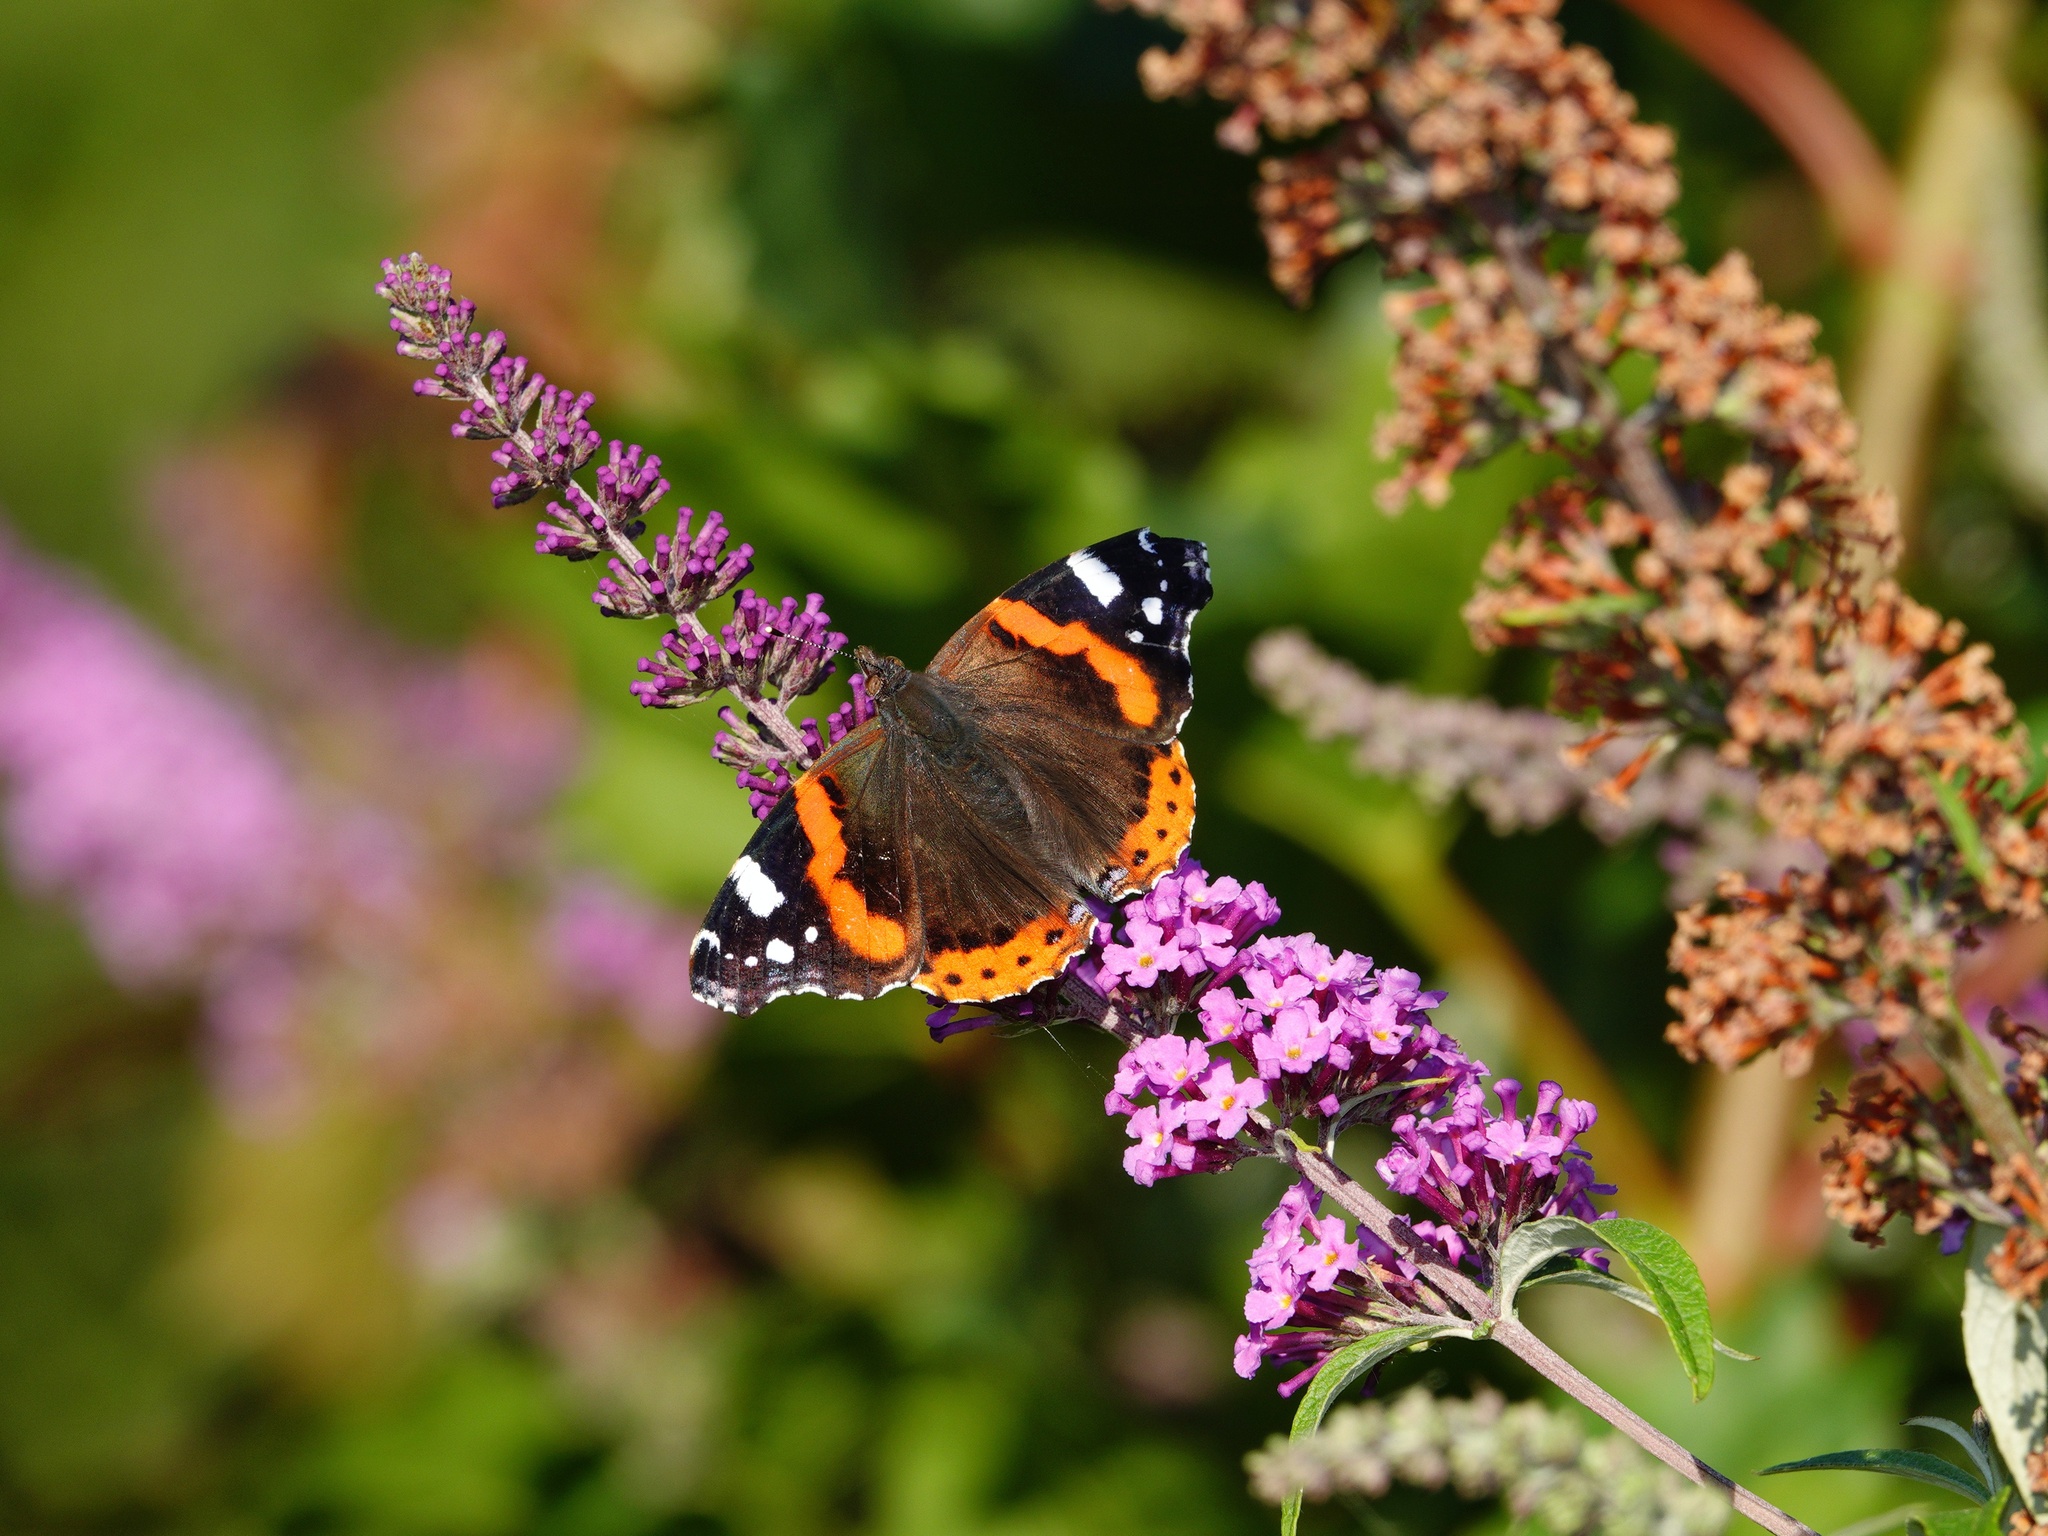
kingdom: Animalia
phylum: Arthropoda
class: Insecta
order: Lepidoptera
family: Nymphalidae
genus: Vanessa
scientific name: Vanessa atalanta
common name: Red admiral
